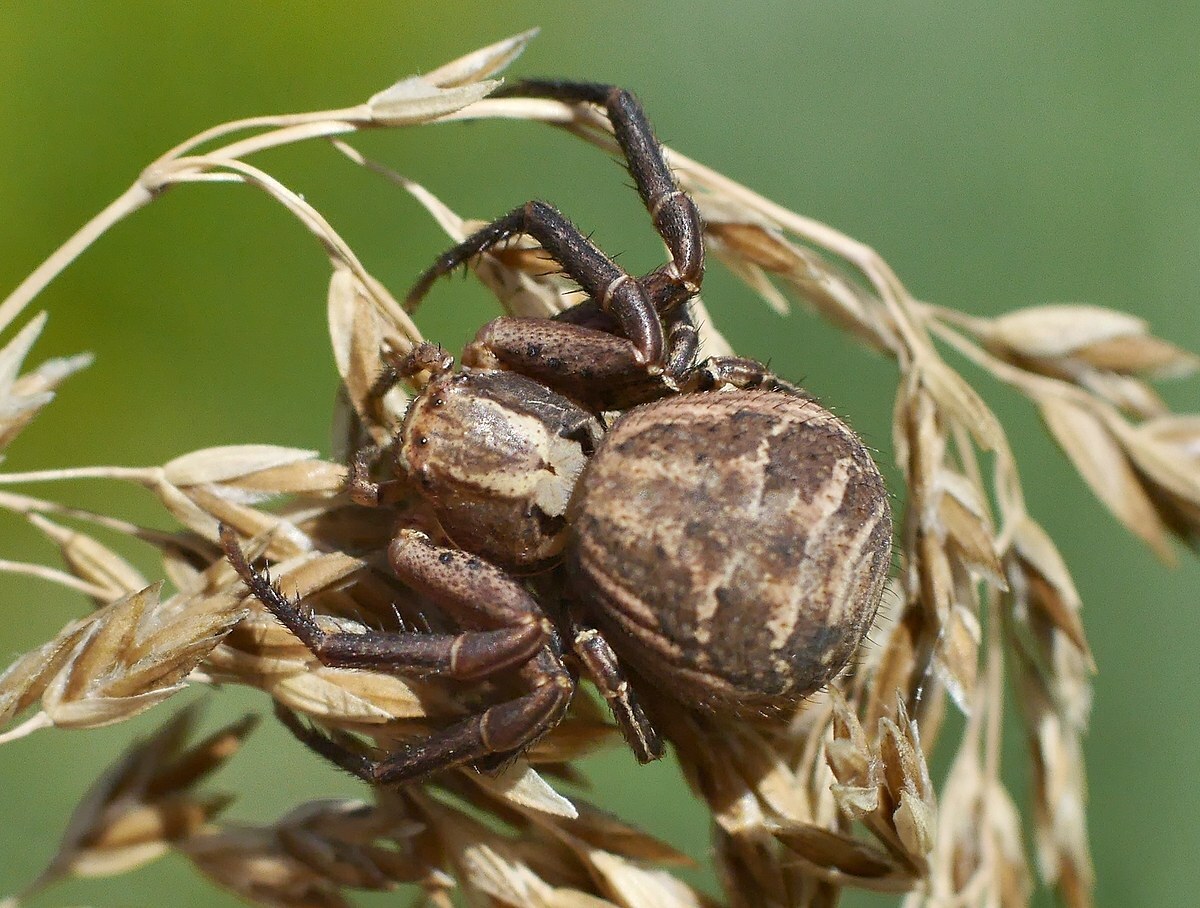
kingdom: Animalia
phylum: Arthropoda
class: Arachnida
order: Araneae
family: Thomisidae
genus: Xysticus
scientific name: Xysticus
